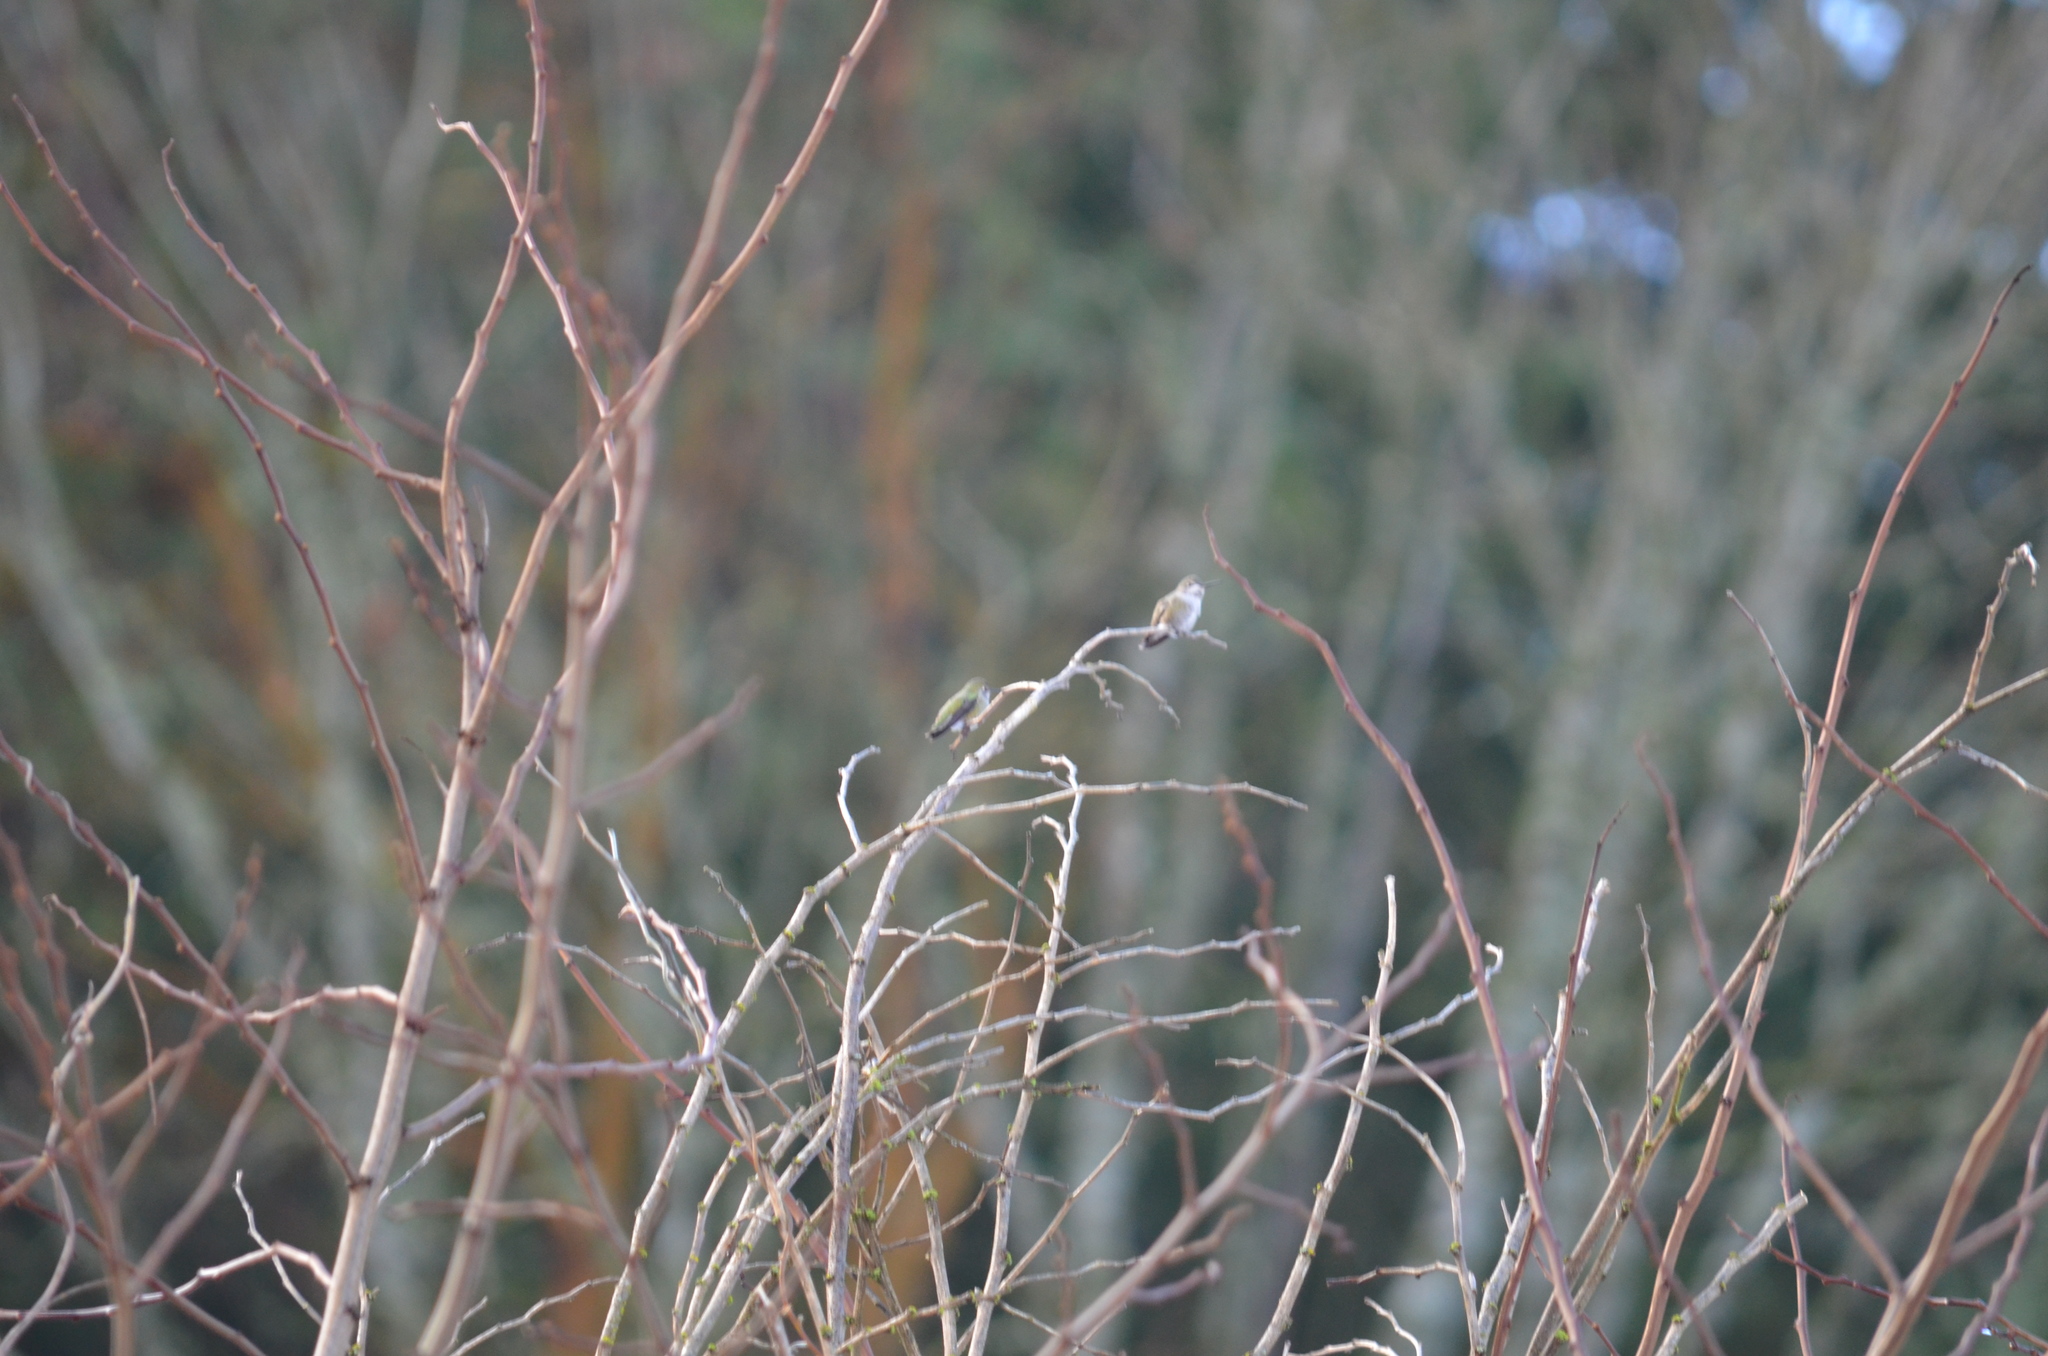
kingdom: Animalia
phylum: Chordata
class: Aves
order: Apodiformes
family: Trochilidae
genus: Calypte
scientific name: Calypte anna
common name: Anna's hummingbird
